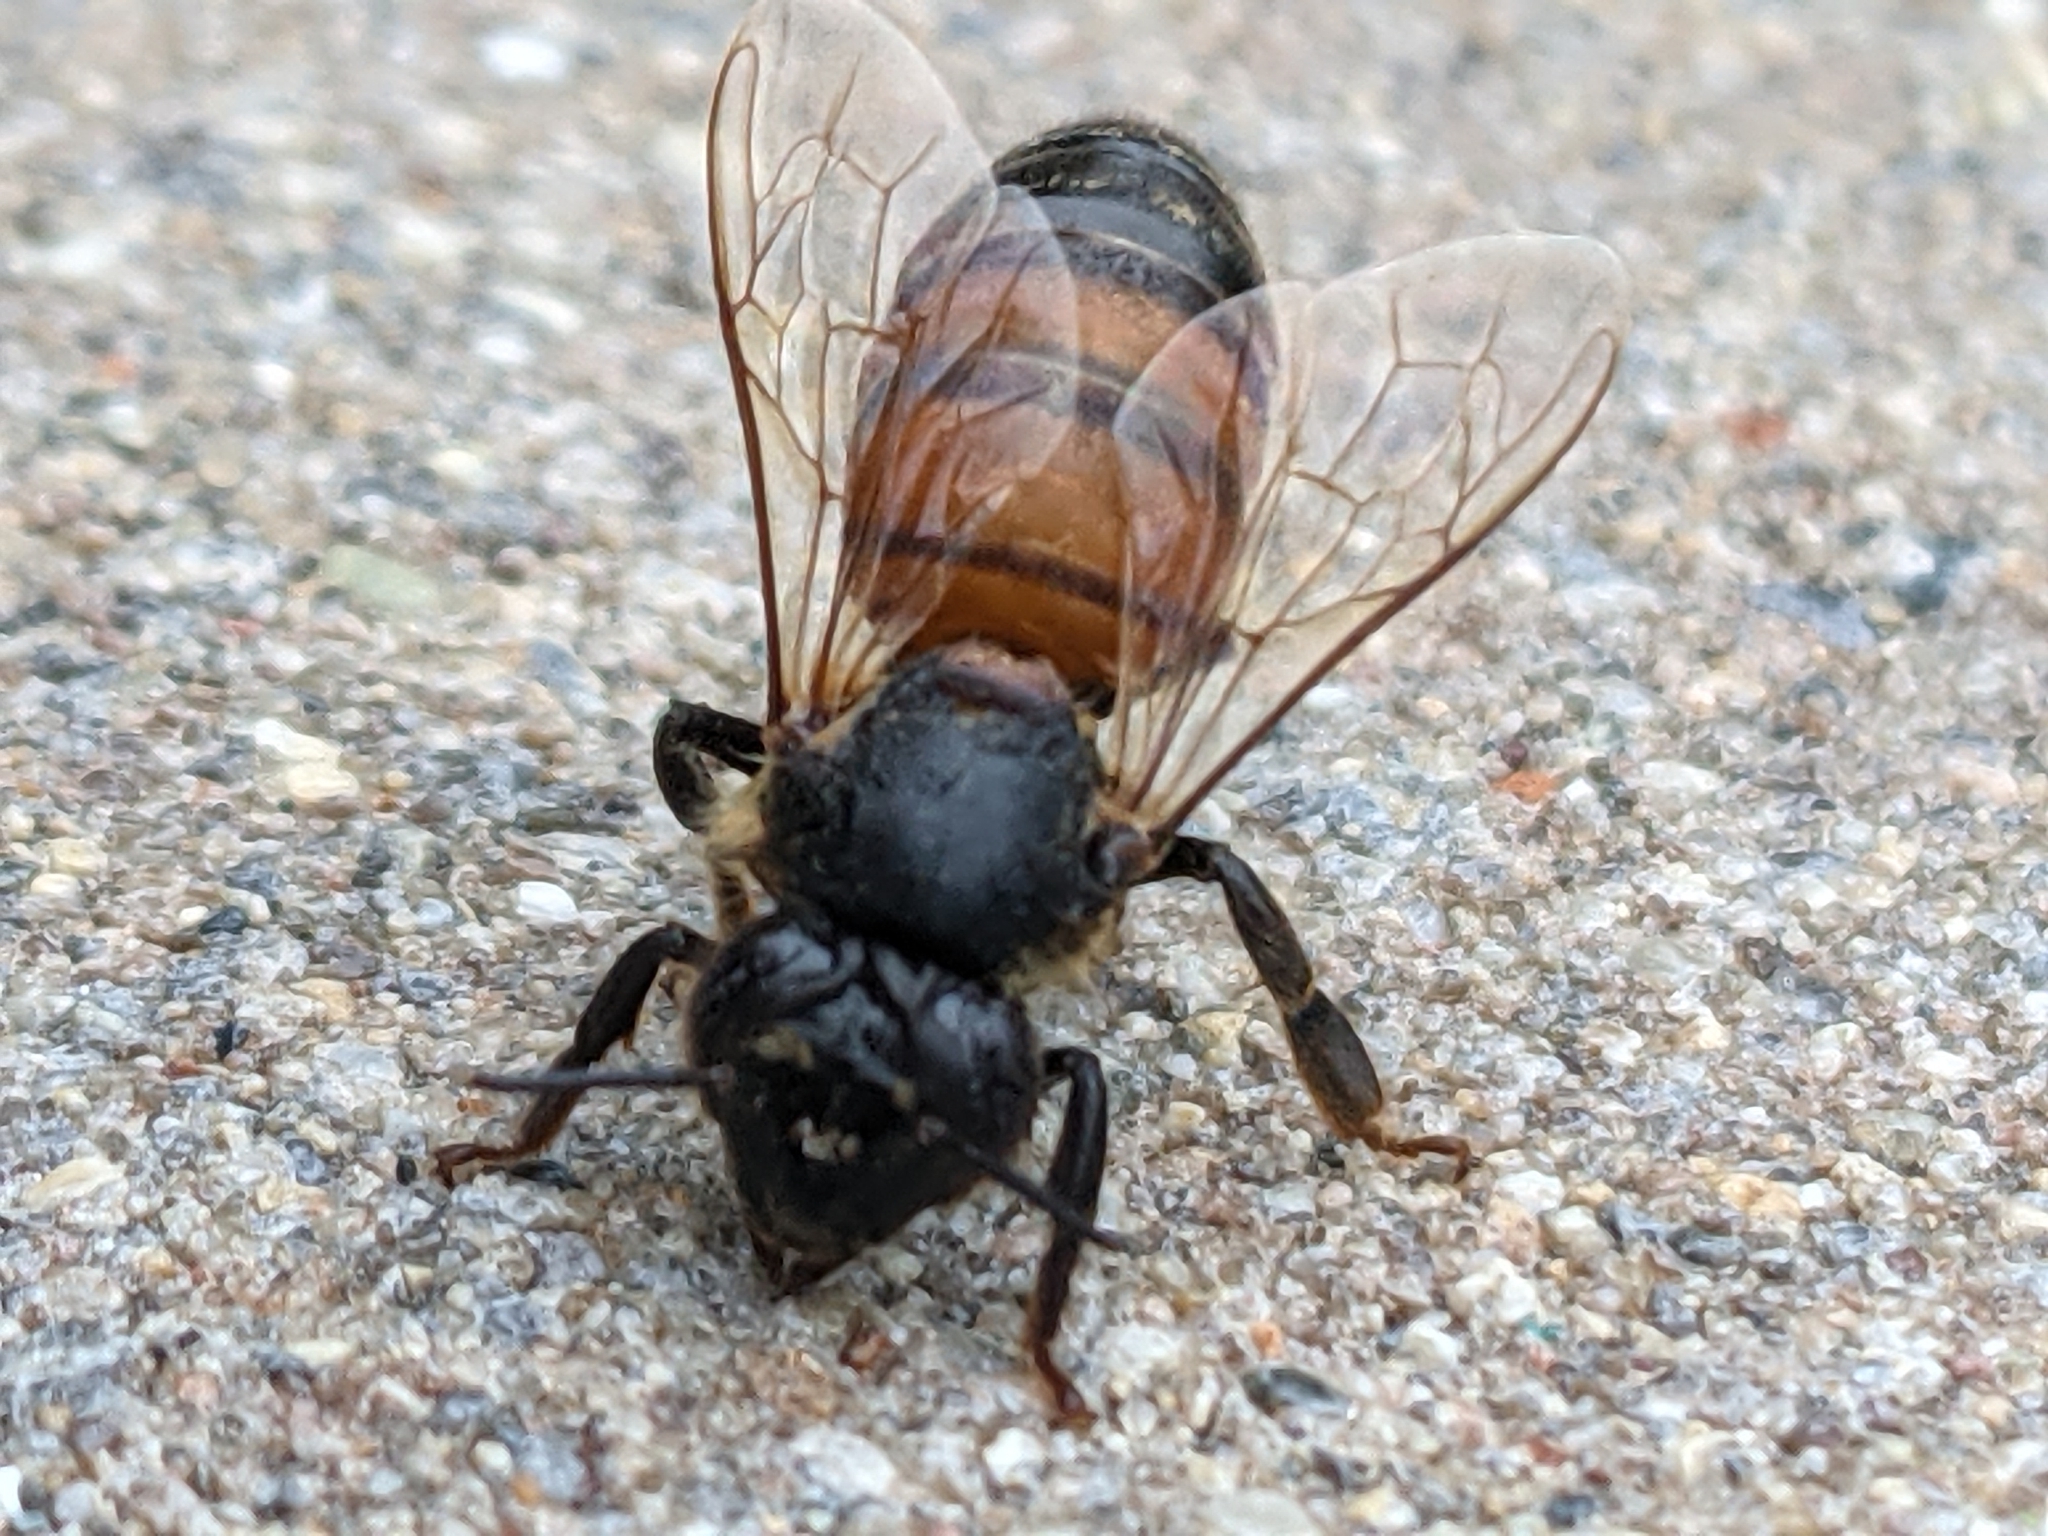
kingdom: Animalia
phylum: Arthropoda
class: Insecta
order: Hymenoptera
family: Apidae
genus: Apis
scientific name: Apis mellifera
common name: Honey bee
